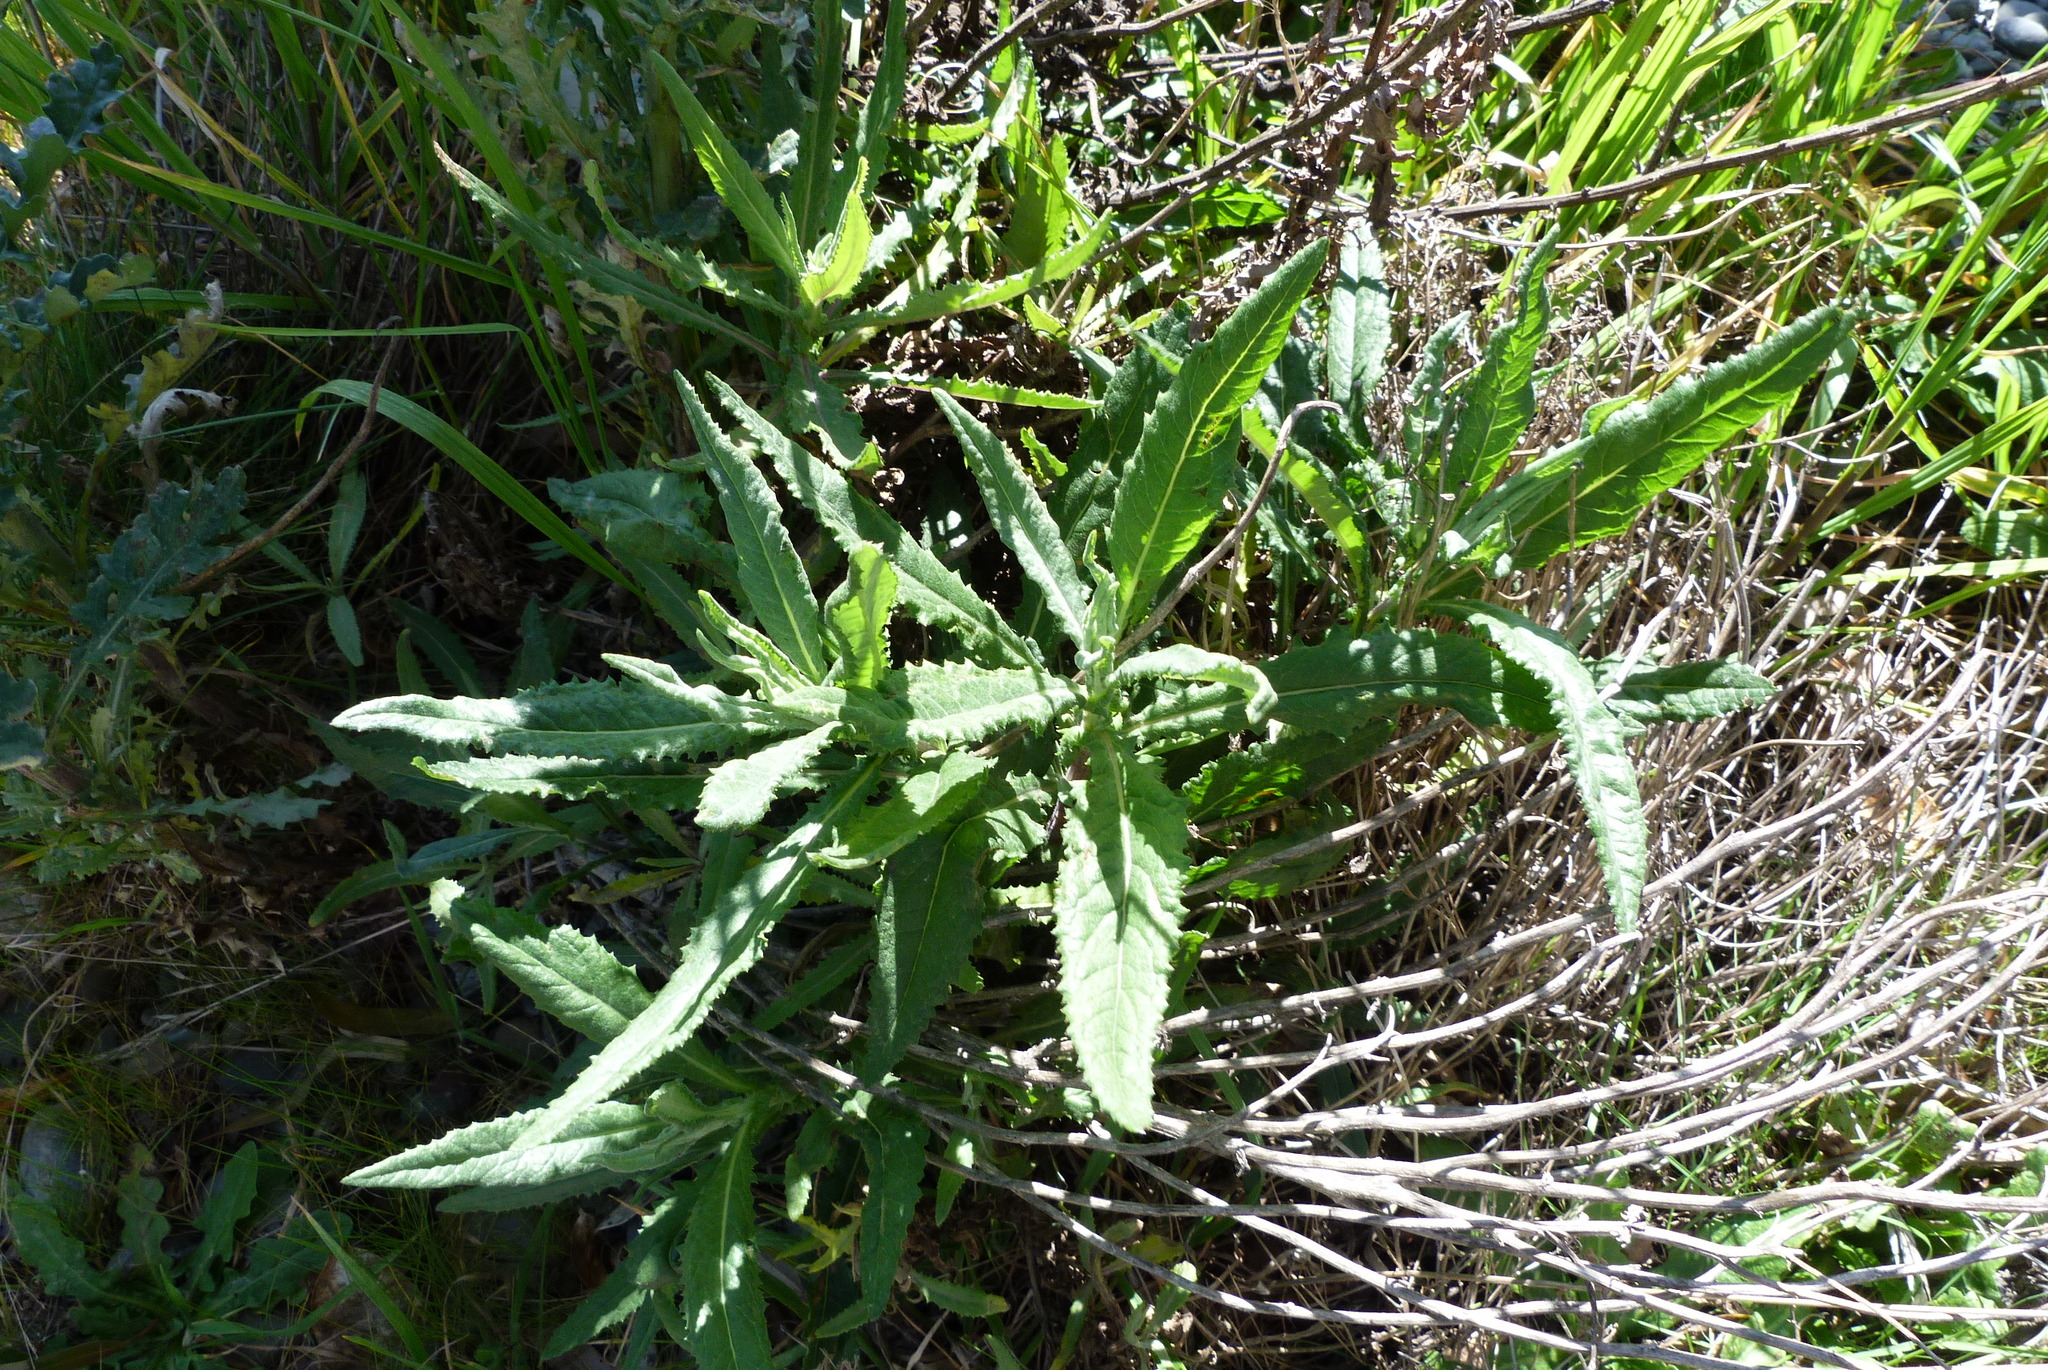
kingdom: Plantae
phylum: Tracheophyta
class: Magnoliopsida
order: Asterales
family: Asteraceae
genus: Senecio
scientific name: Senecio minimus
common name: Toothed fireweed
